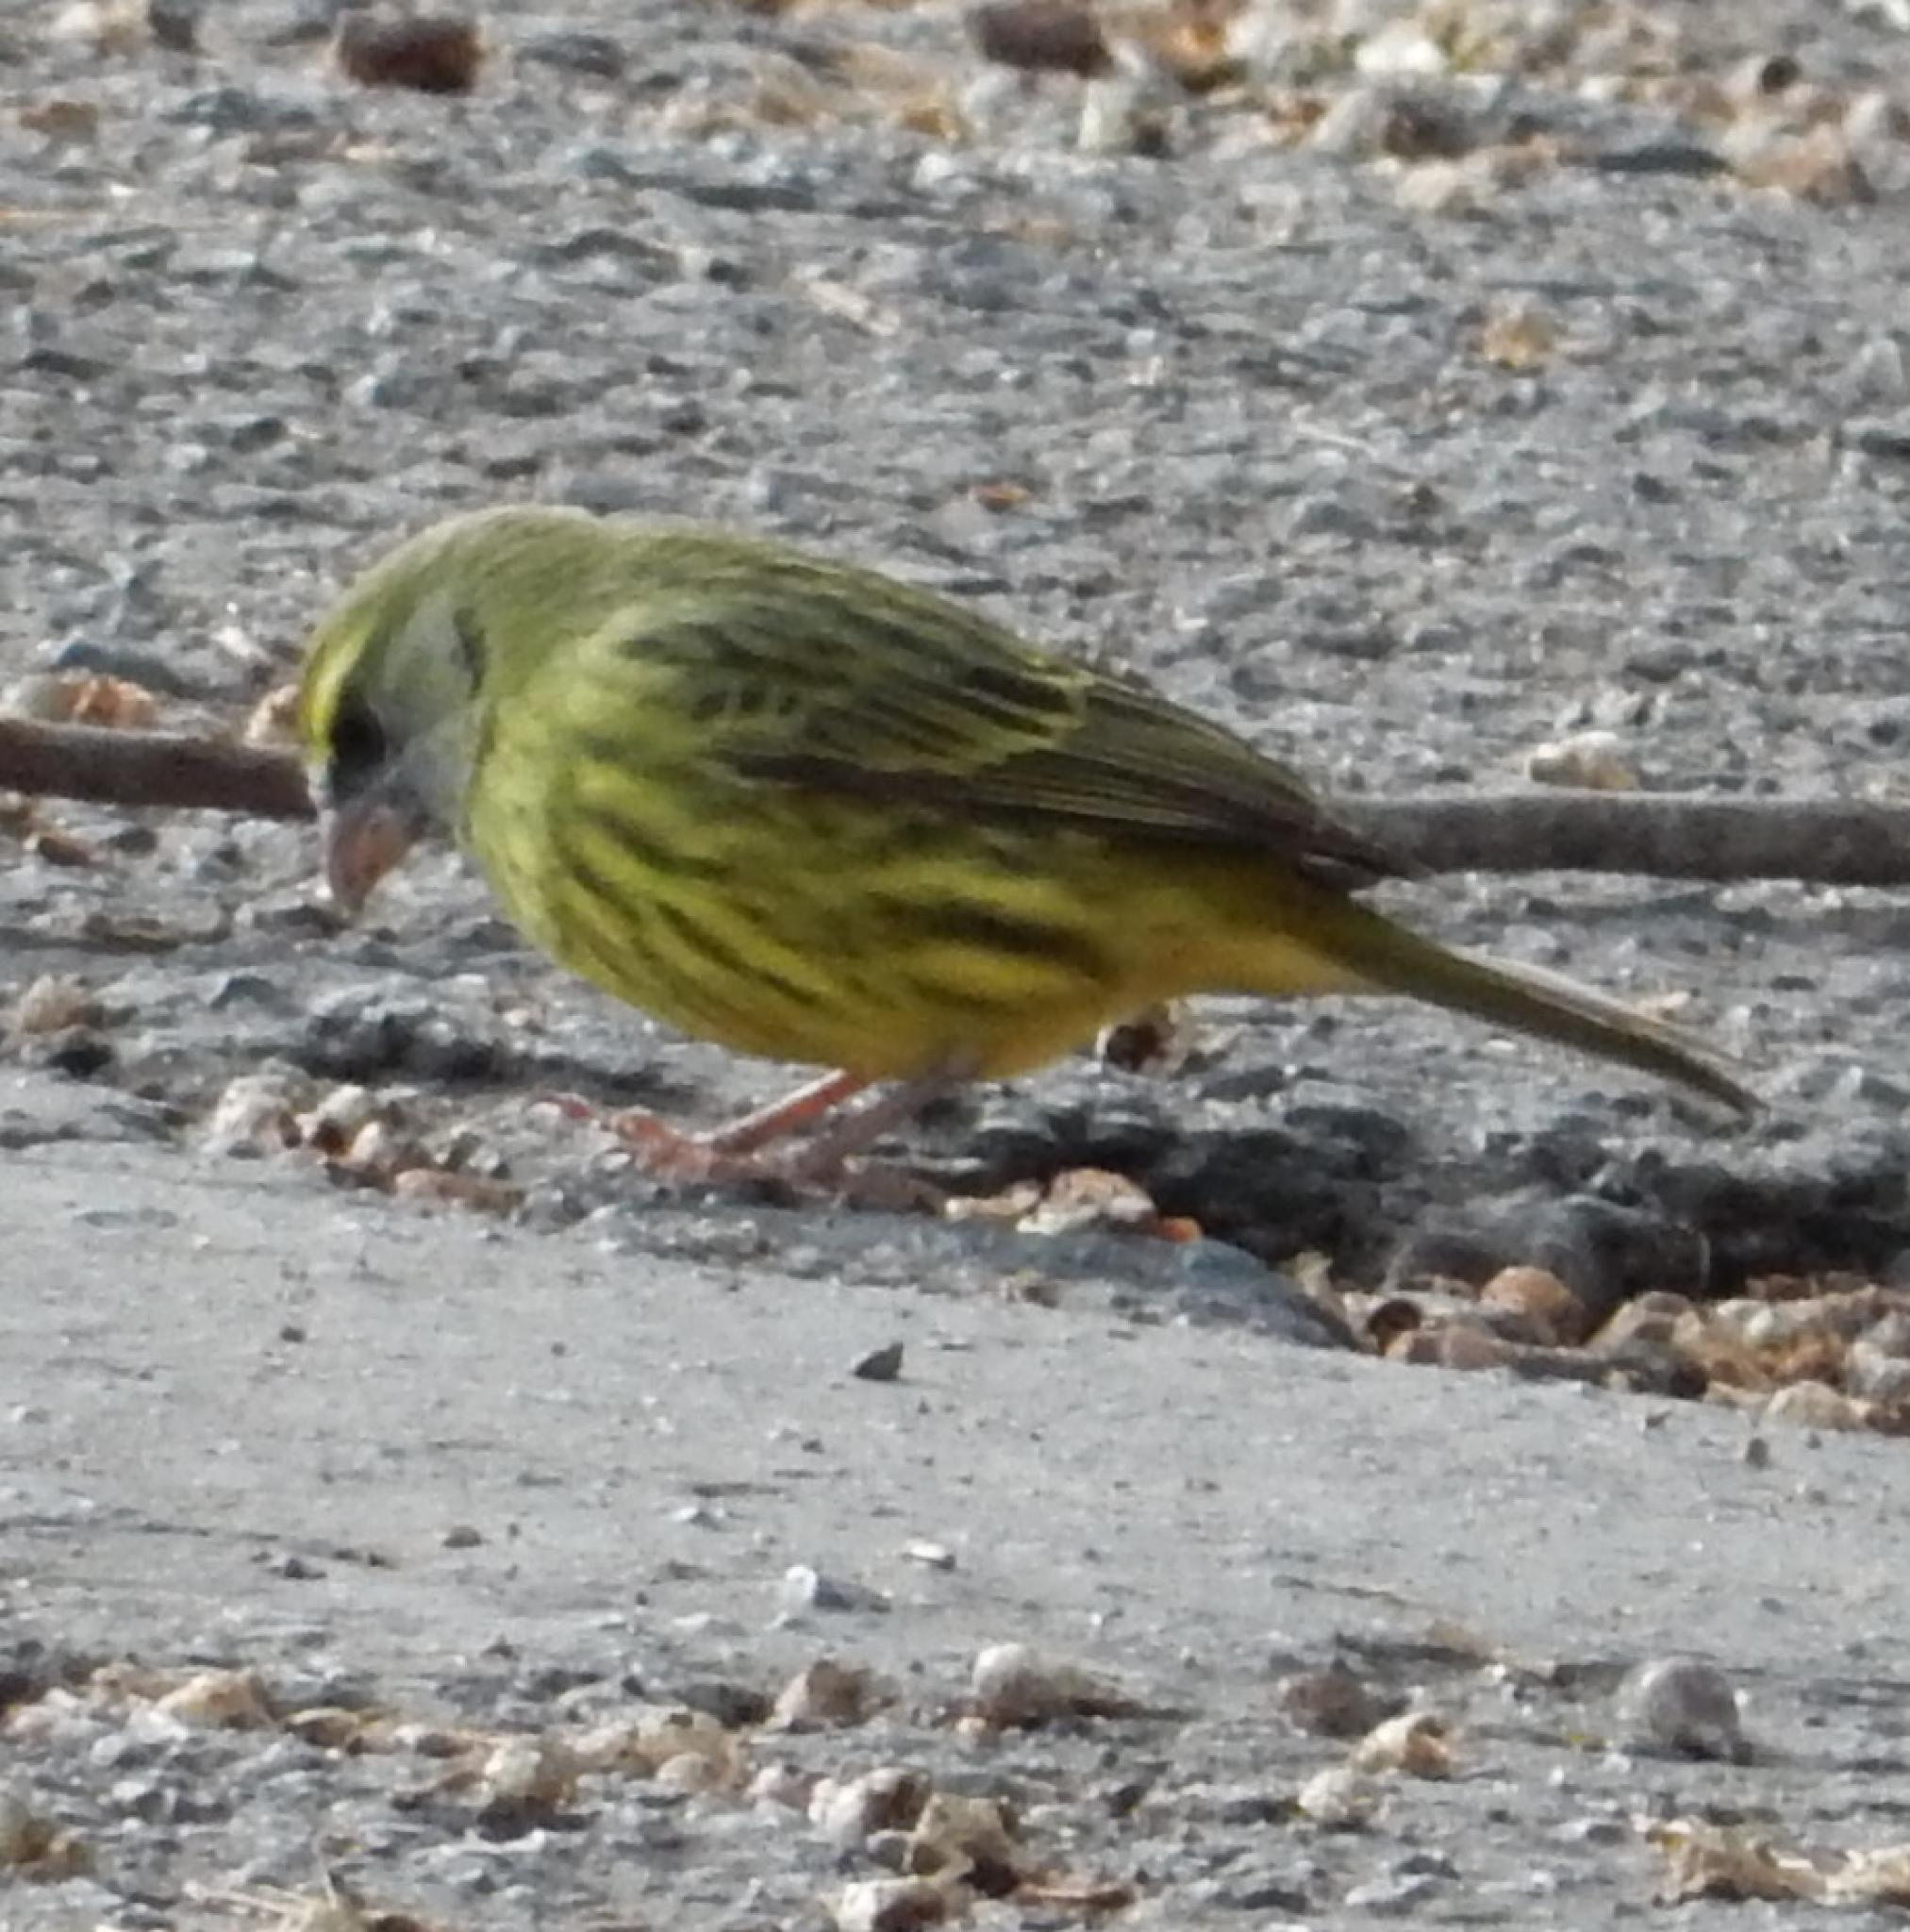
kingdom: Animalia
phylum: Chordata
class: Aves
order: Passeriformes
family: Fringillidae
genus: Crithagra
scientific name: Crithagra scotops
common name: Forest canary
